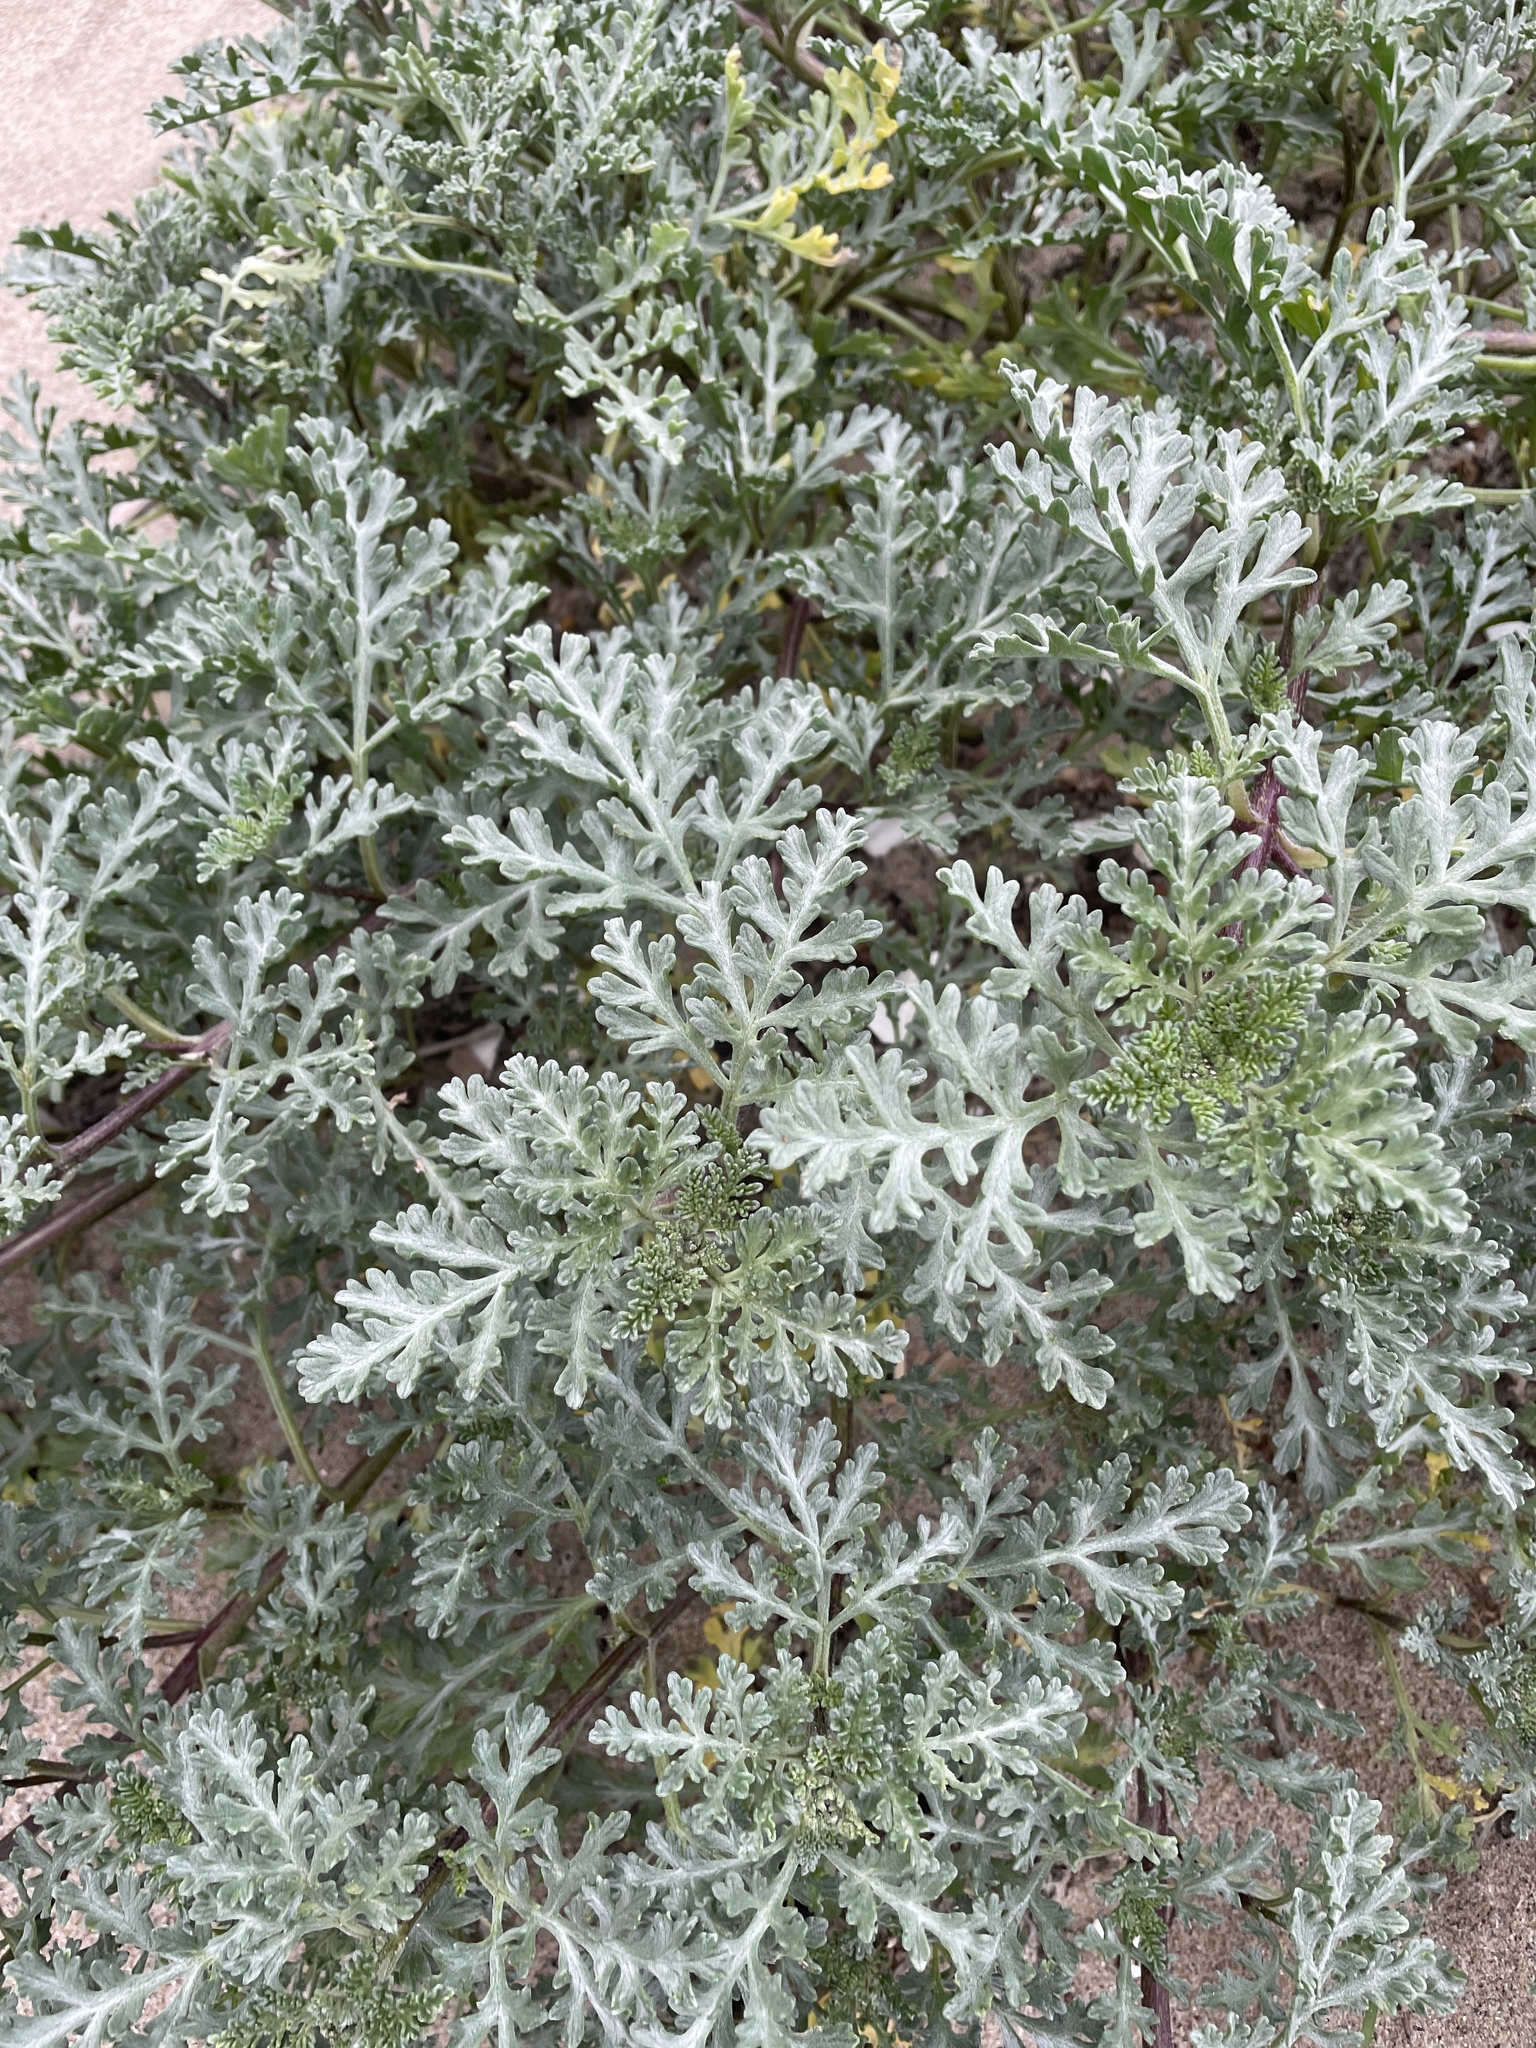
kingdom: Plantae
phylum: Tracheophyta
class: Magnoliopsida
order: Asterales
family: Asteraceae
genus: Ambrosia
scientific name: Ambrosia chamissonis
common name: Beachbur
